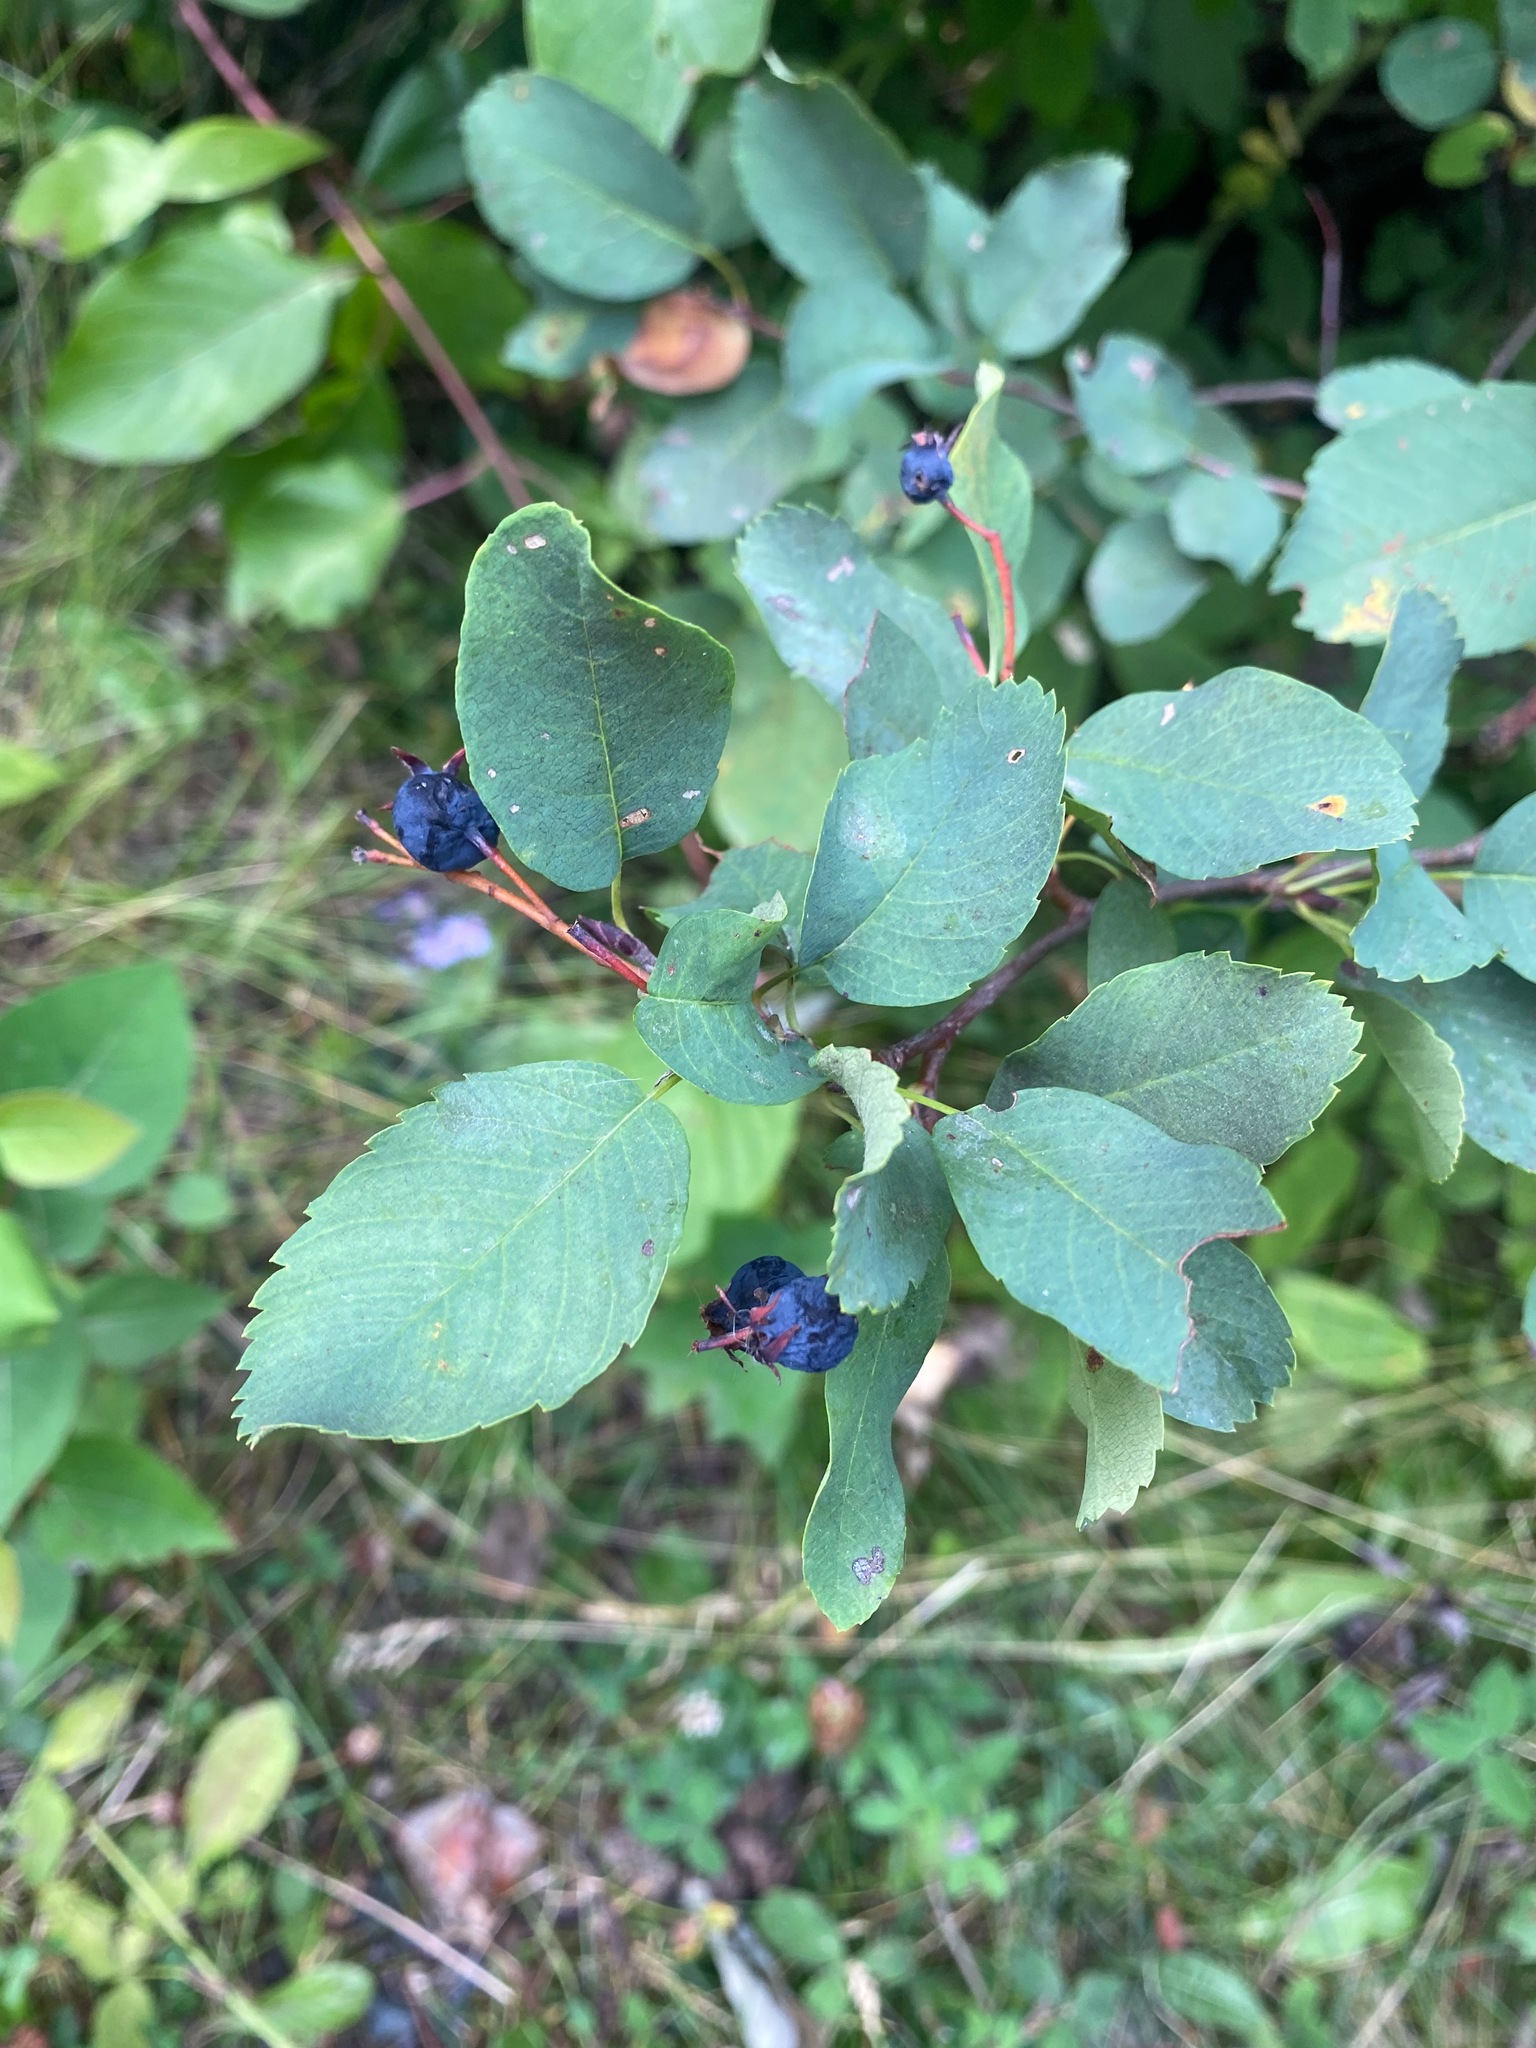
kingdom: Plantae
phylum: Tracheophyta
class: Magnoliopsida
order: Rosales
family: Rosaceae
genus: Amelanchier
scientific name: Amelanchier alnifolia
